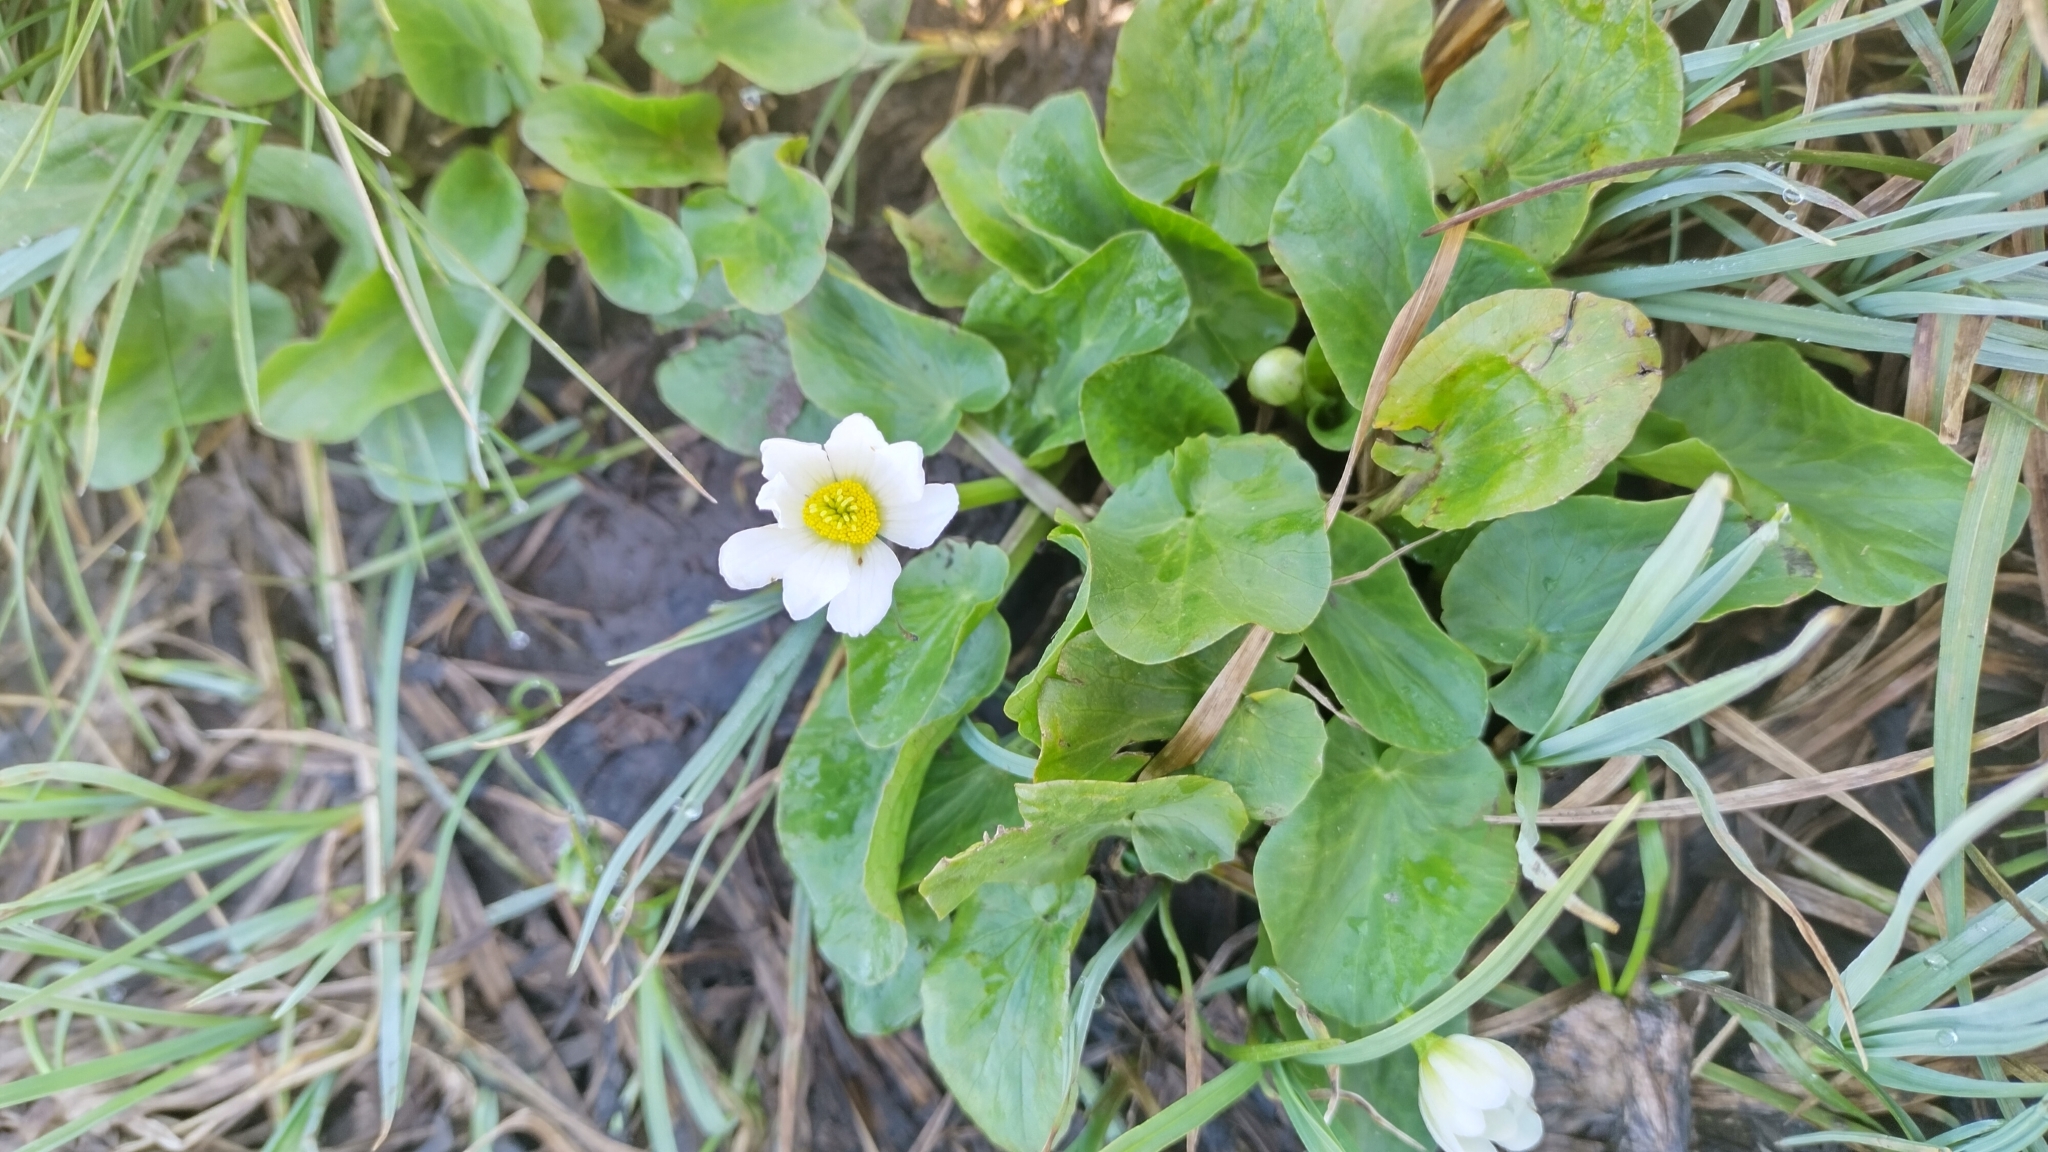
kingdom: Plantae
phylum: Tracheophyta
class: Magnoliopsida
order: Ranunculales
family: Ranunculaceae
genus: Caltha
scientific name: Caltha leptosepala
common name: Elkslip
